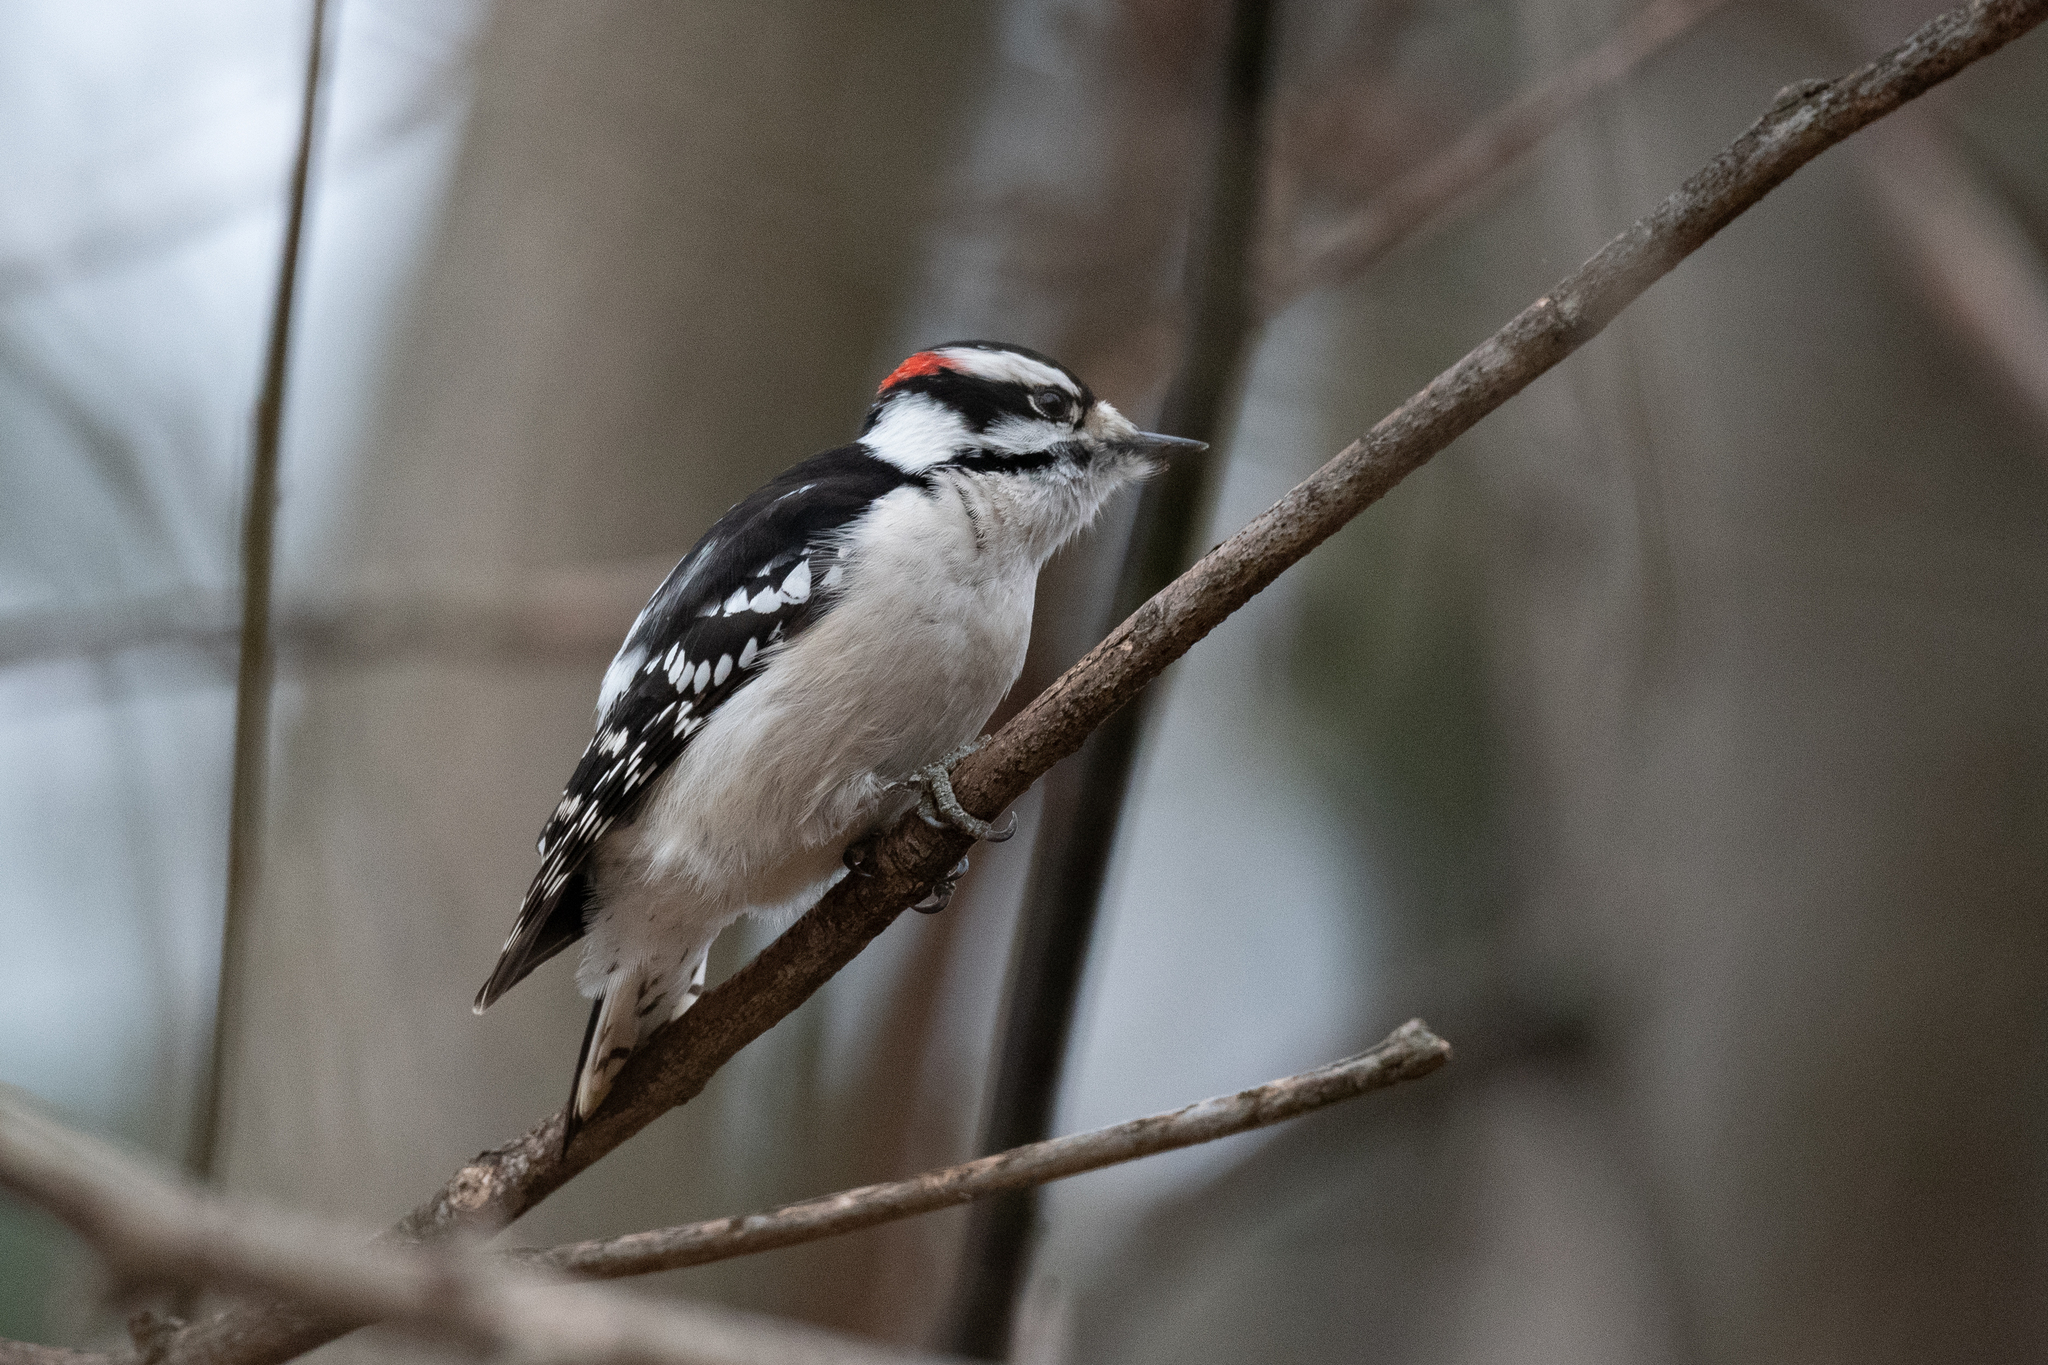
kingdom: Animalia
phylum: Chordata
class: Aves
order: Piciformes
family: Picidae
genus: Dryobates
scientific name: Dryobates pubescens
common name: Downy woodpecker
